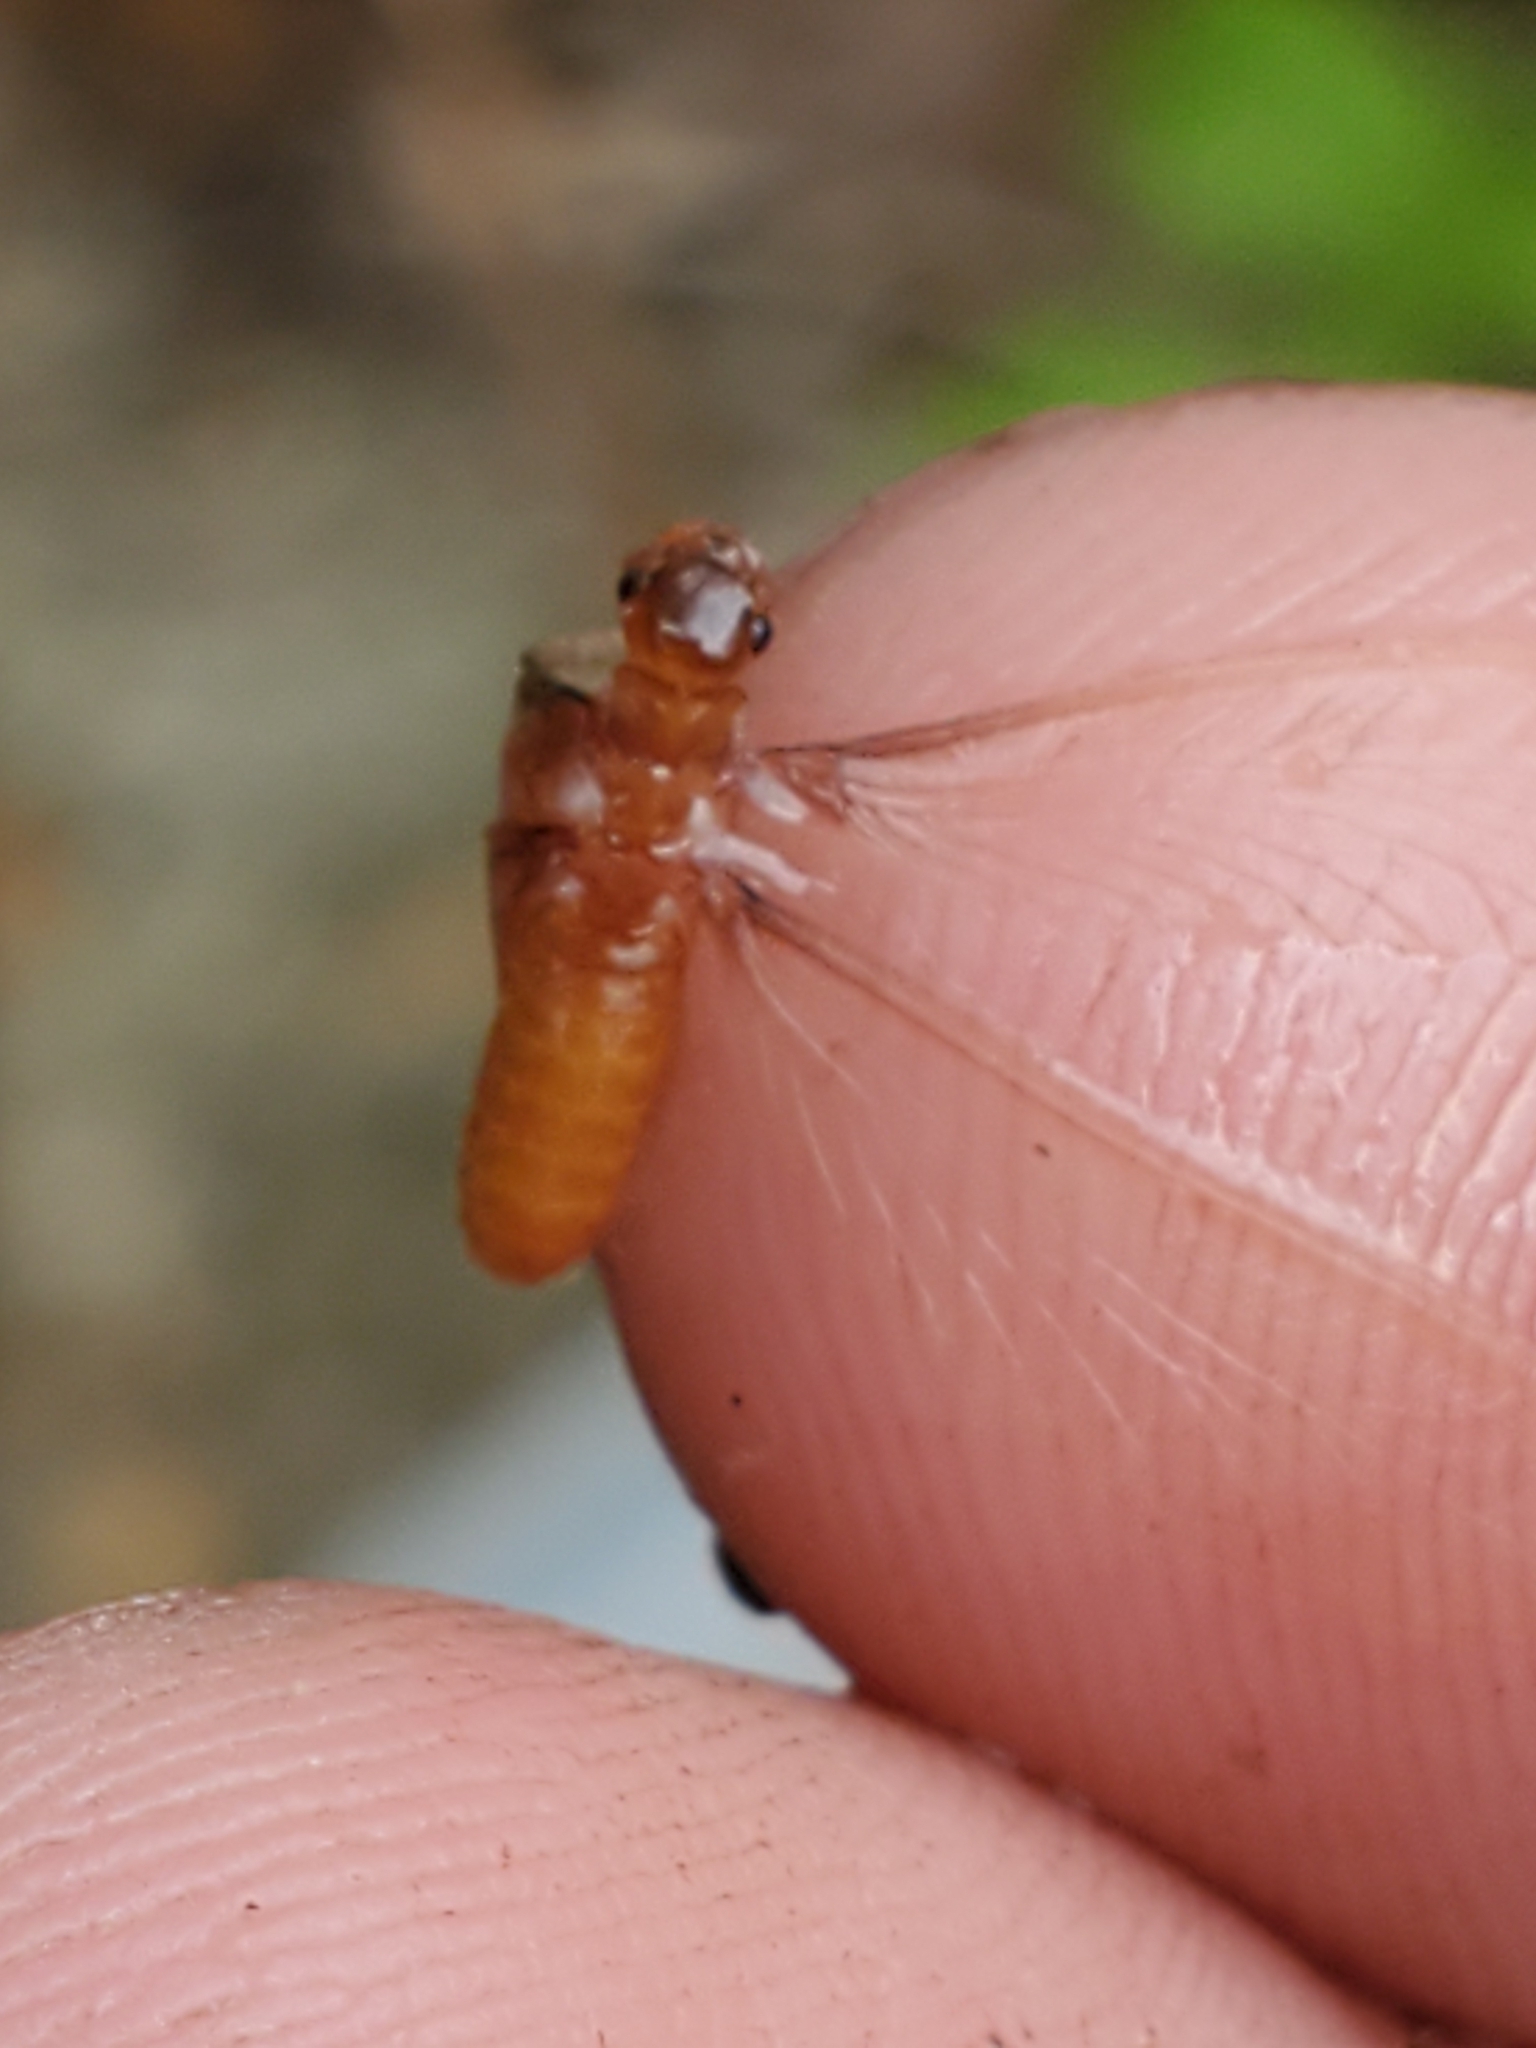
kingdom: Animalia
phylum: Arthropoda
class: Insecta
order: Blattodea
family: Rhinotermitidae
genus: Coptotermes
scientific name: Coptotermes formosanus
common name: Formosan termite
